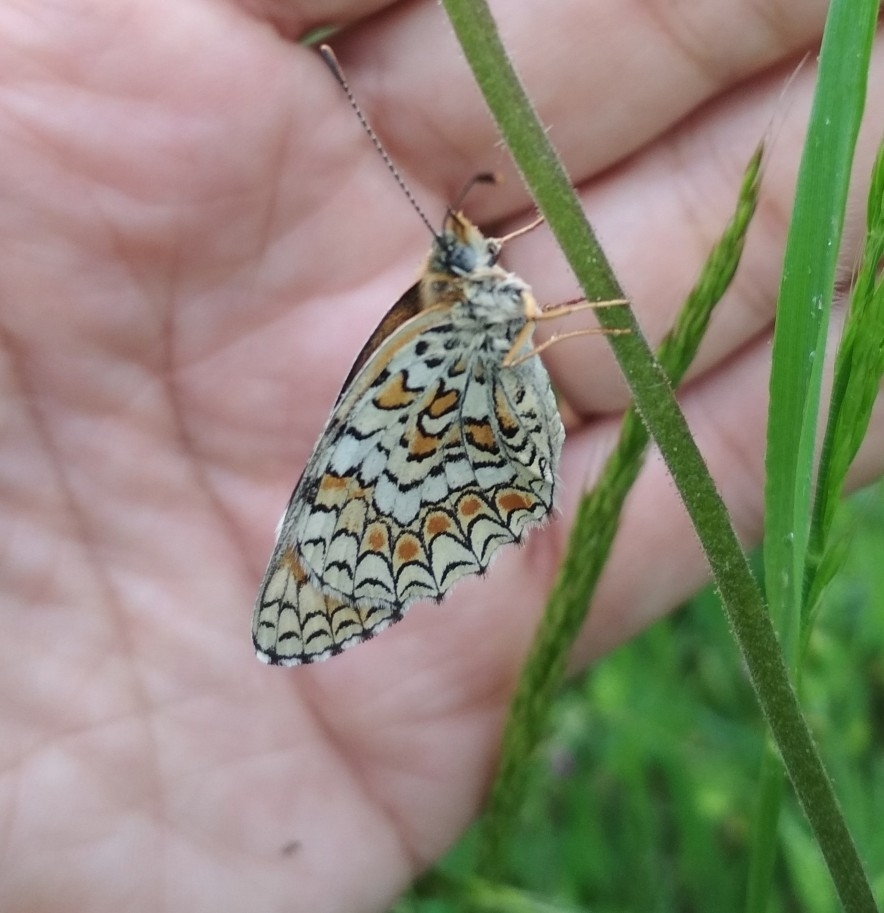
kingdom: Animalia
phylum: Arthropoda
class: Insecta
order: Lepidoptera
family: Nymphalidae
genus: Melitaea
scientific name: Melitaea phoebe
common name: Knapweed fritillary
